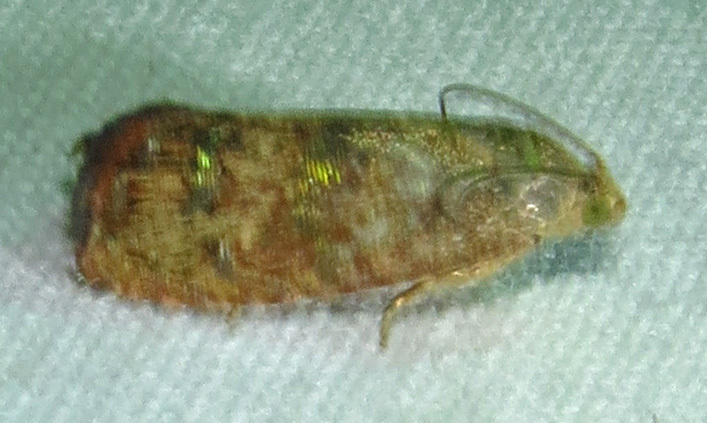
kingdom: Animalia
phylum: Arthropoda
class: Insecta
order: Lepidoptera
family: Tortricidae
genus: Cydia
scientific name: Cydia latiferreana
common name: Filbertworm moth
